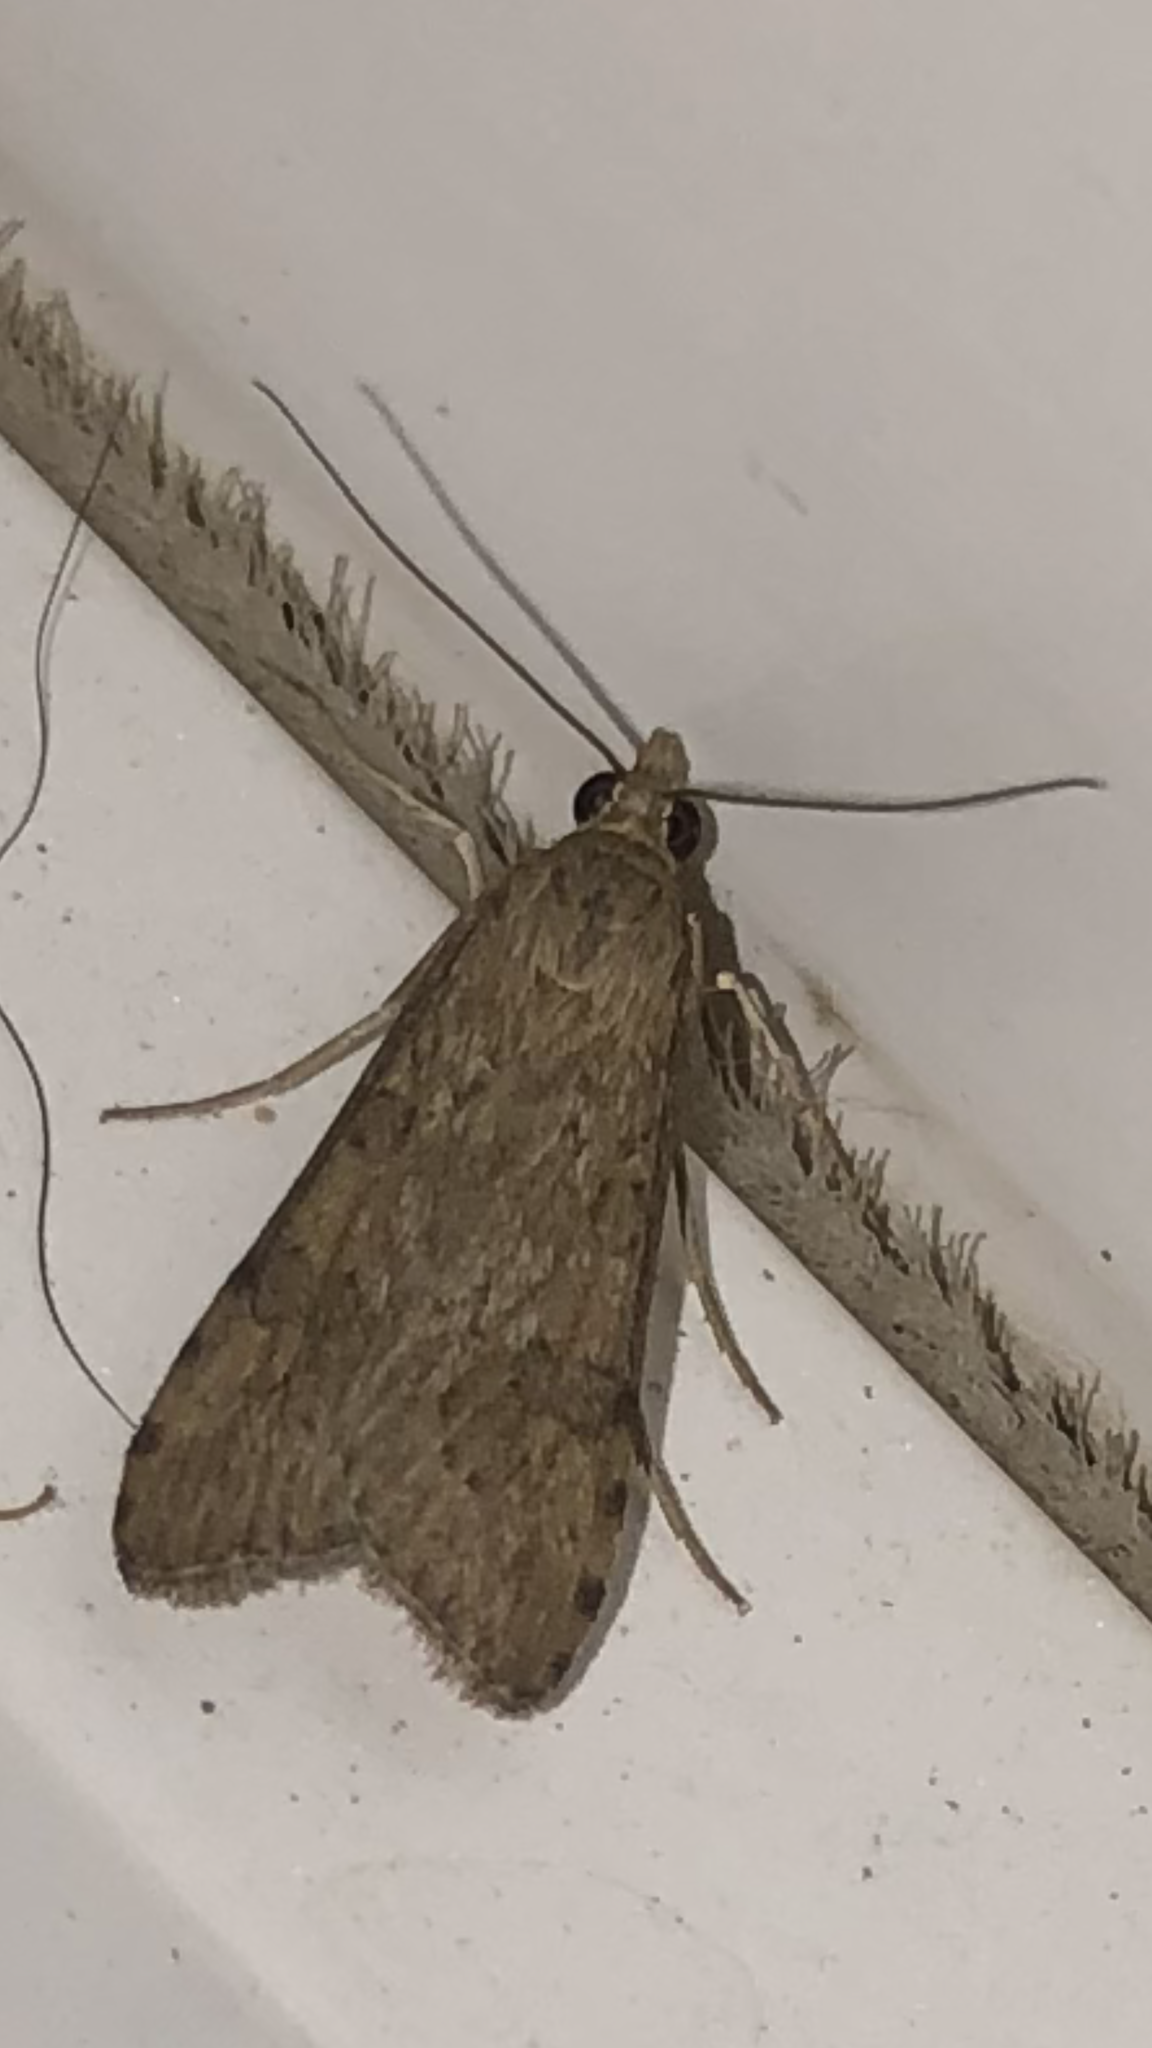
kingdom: Animalia
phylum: Arthropoda
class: Insecta
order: Lepidoptera
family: Crambidae
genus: Nomophila
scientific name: Nomophila nearctica
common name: American rush veneer
